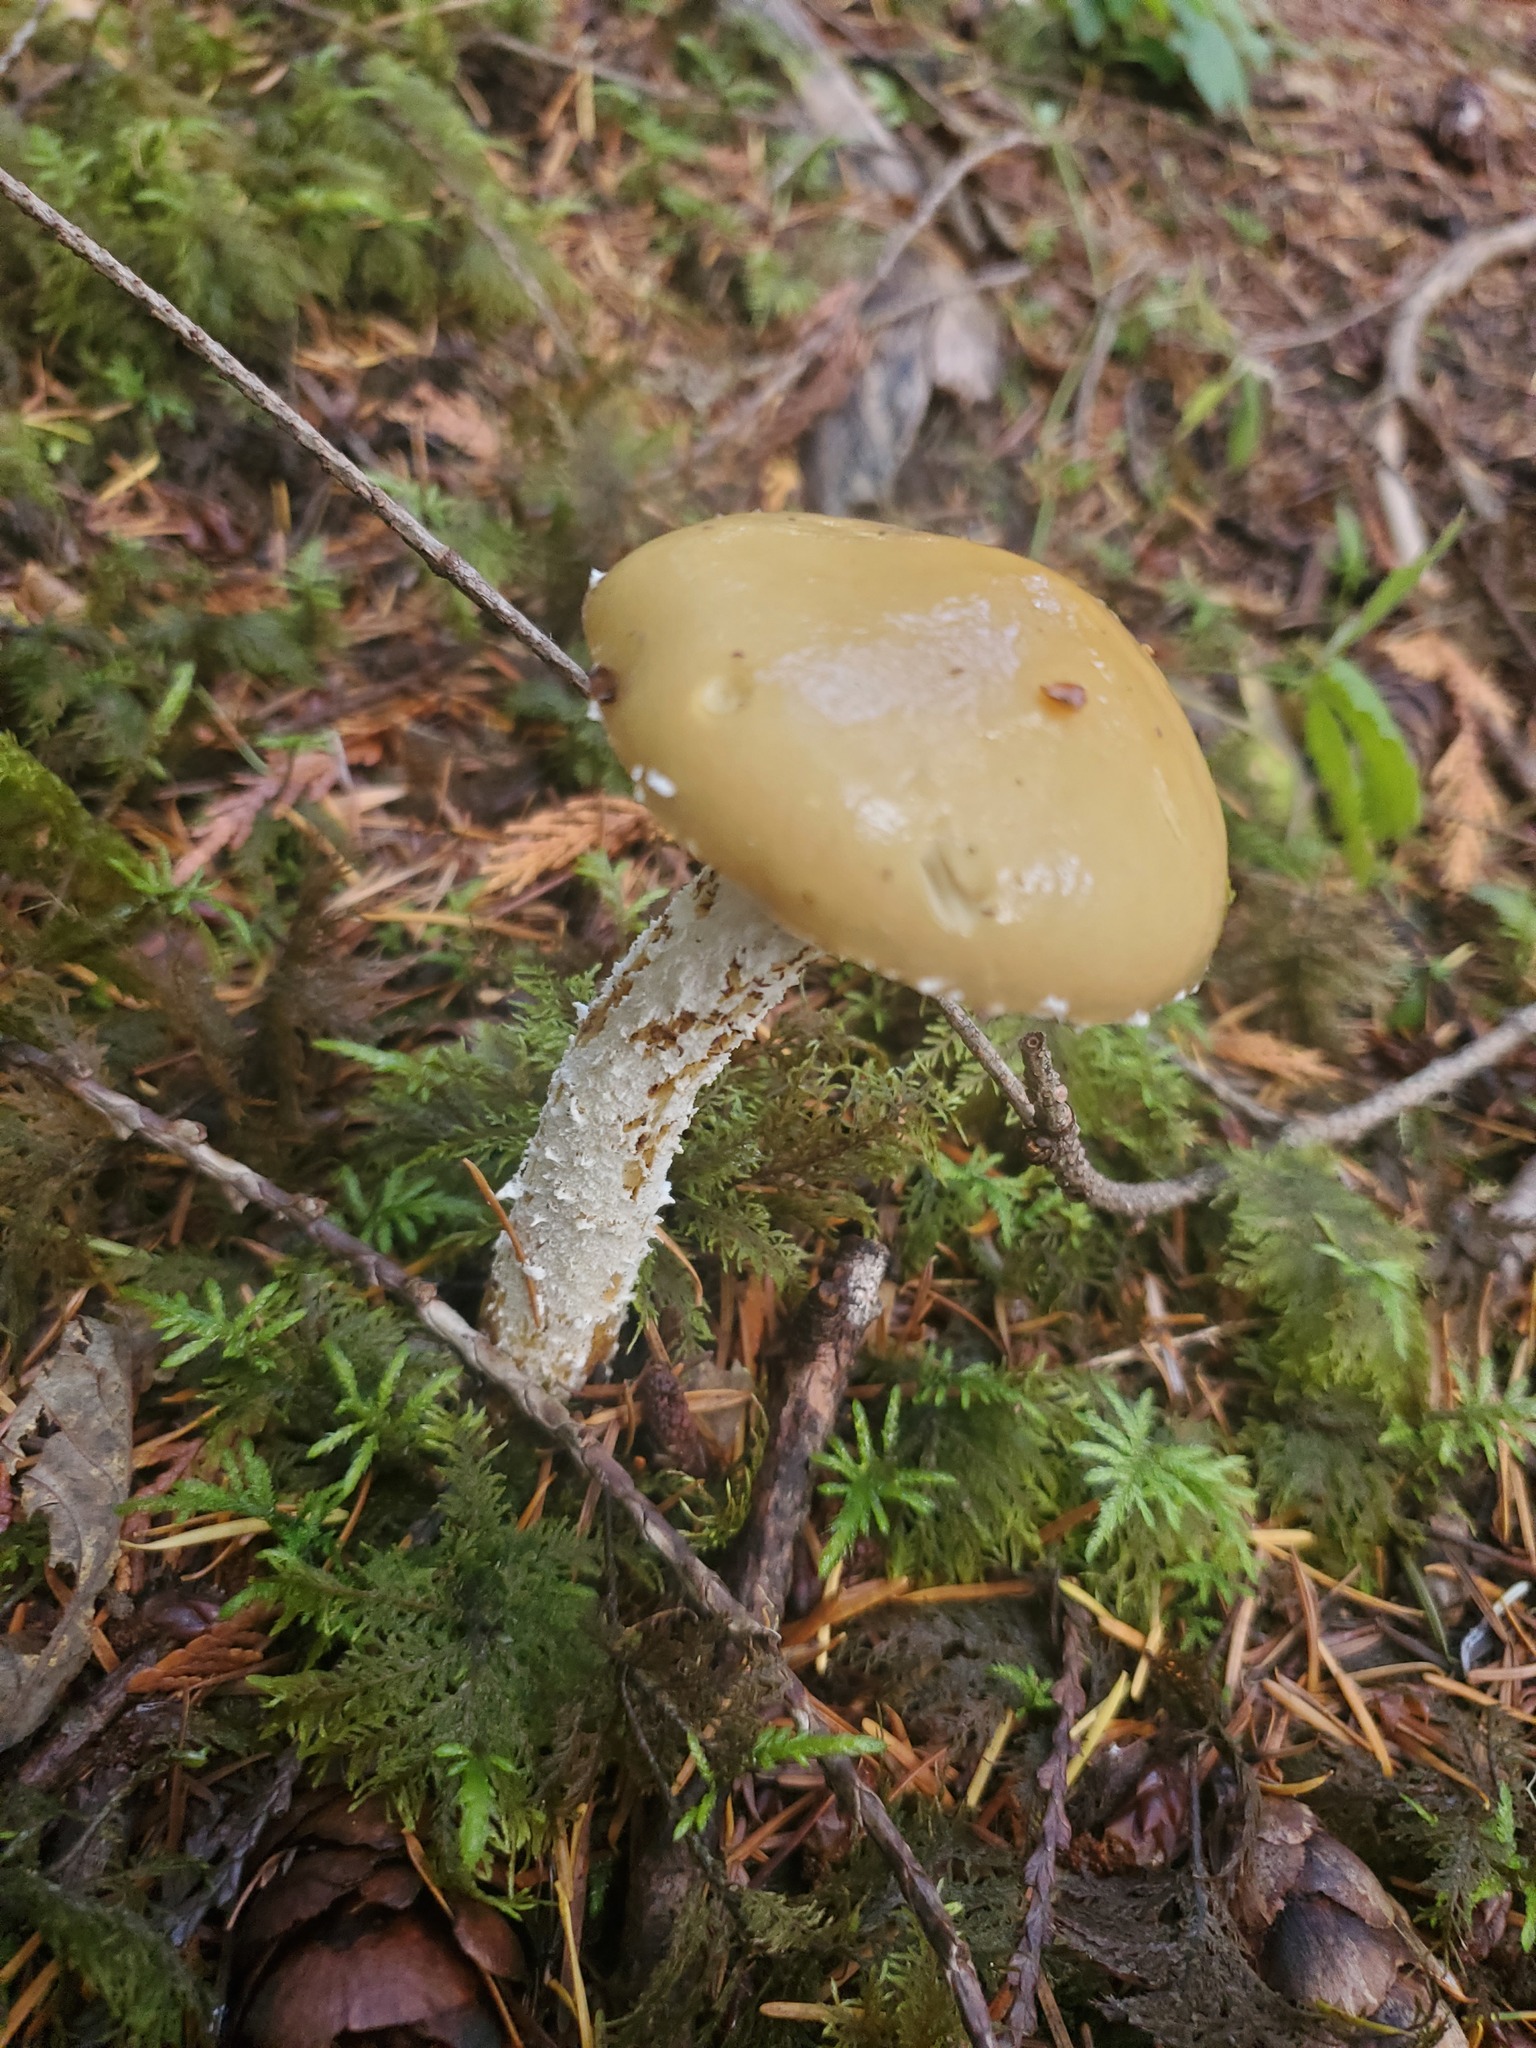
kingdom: Fungi
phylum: Basidiomycota
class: Agaricomycetes
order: Agaricales
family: Strophariaceae
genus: Stropharia
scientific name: Stropharia ambigua
